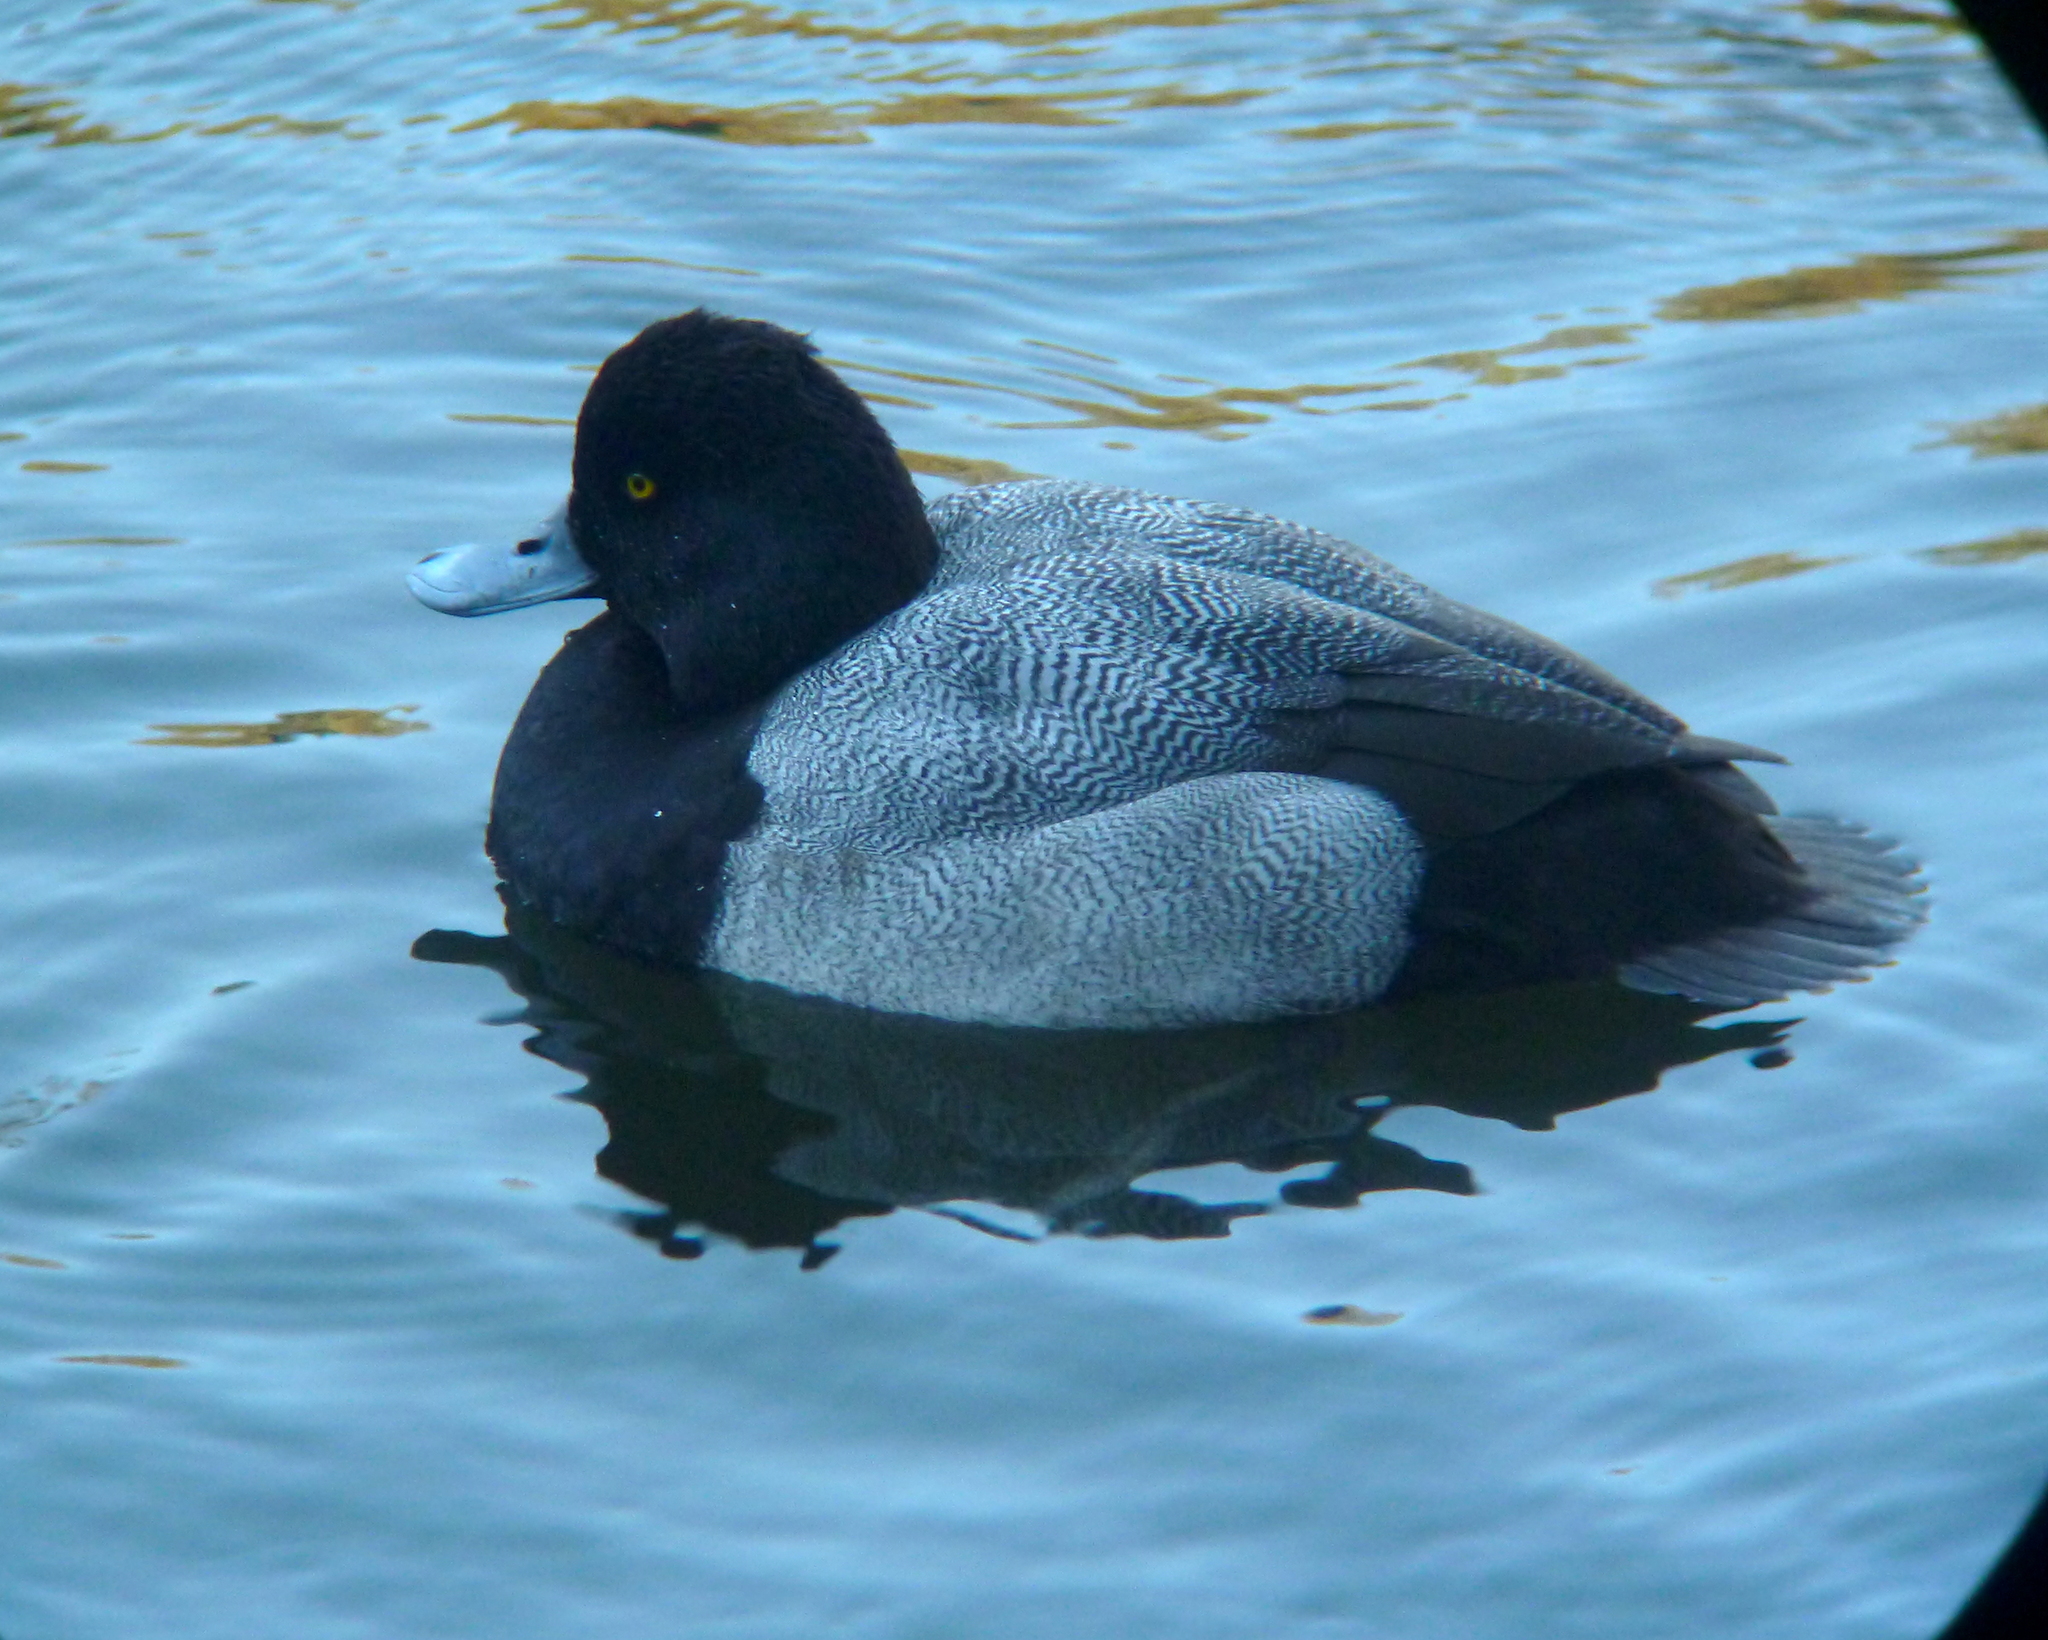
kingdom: Animalia
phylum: Chordata
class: Aves
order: Anseriformes
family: Anatidae
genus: Aythya
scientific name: Aythya affinis
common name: Lesser scaup
